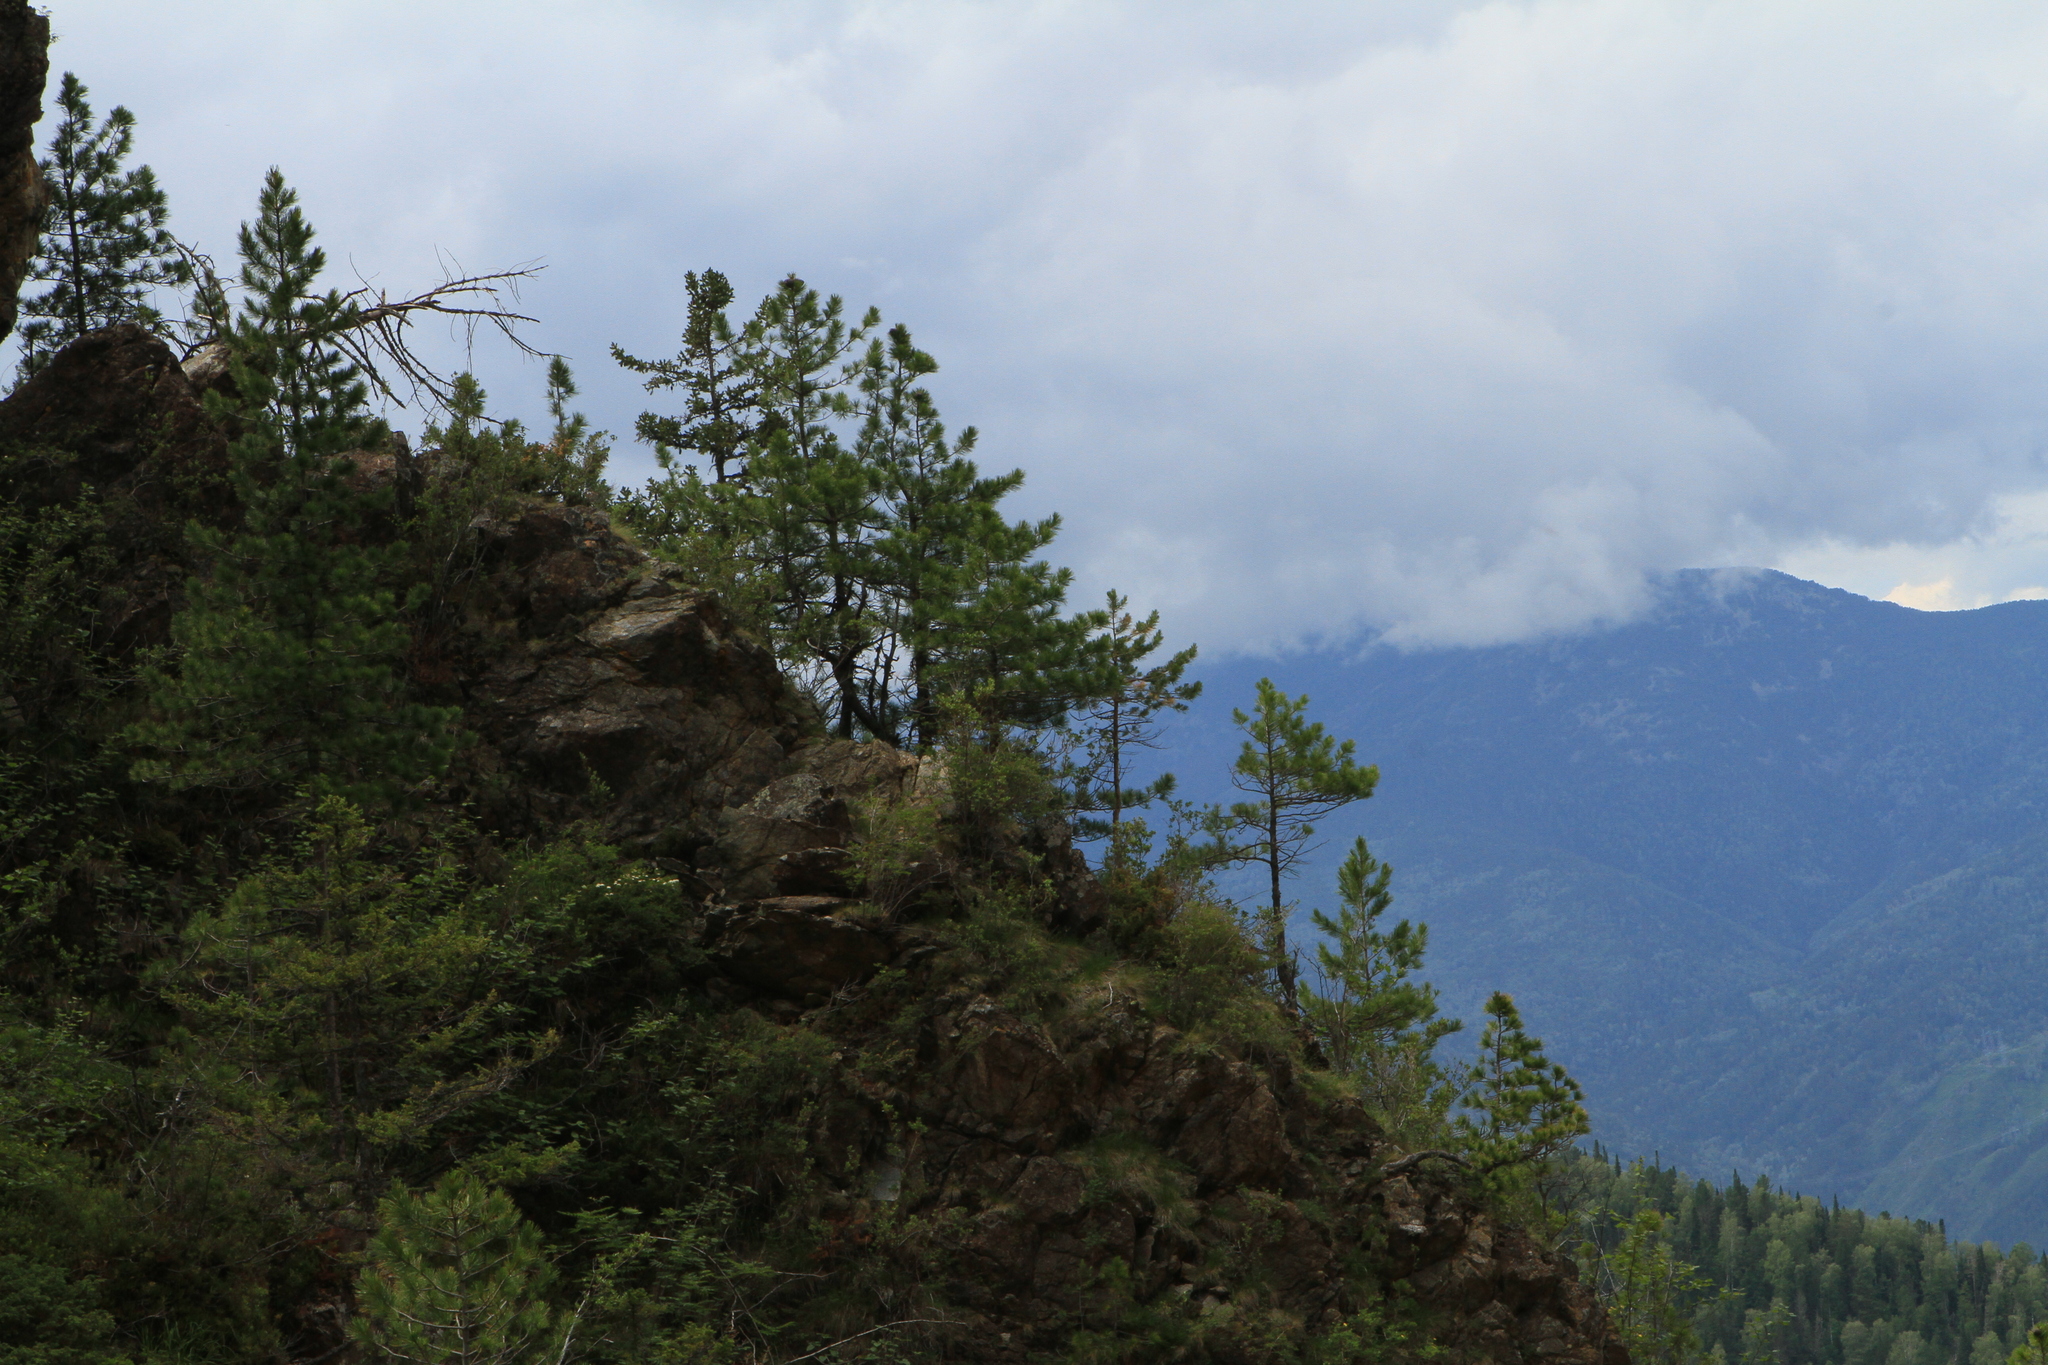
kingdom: Plantae
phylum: Tracheophyta
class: Pinopsida
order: Pinales
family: Pinaceae
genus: Pinus
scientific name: Pinus sibirica
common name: Siberian pine
